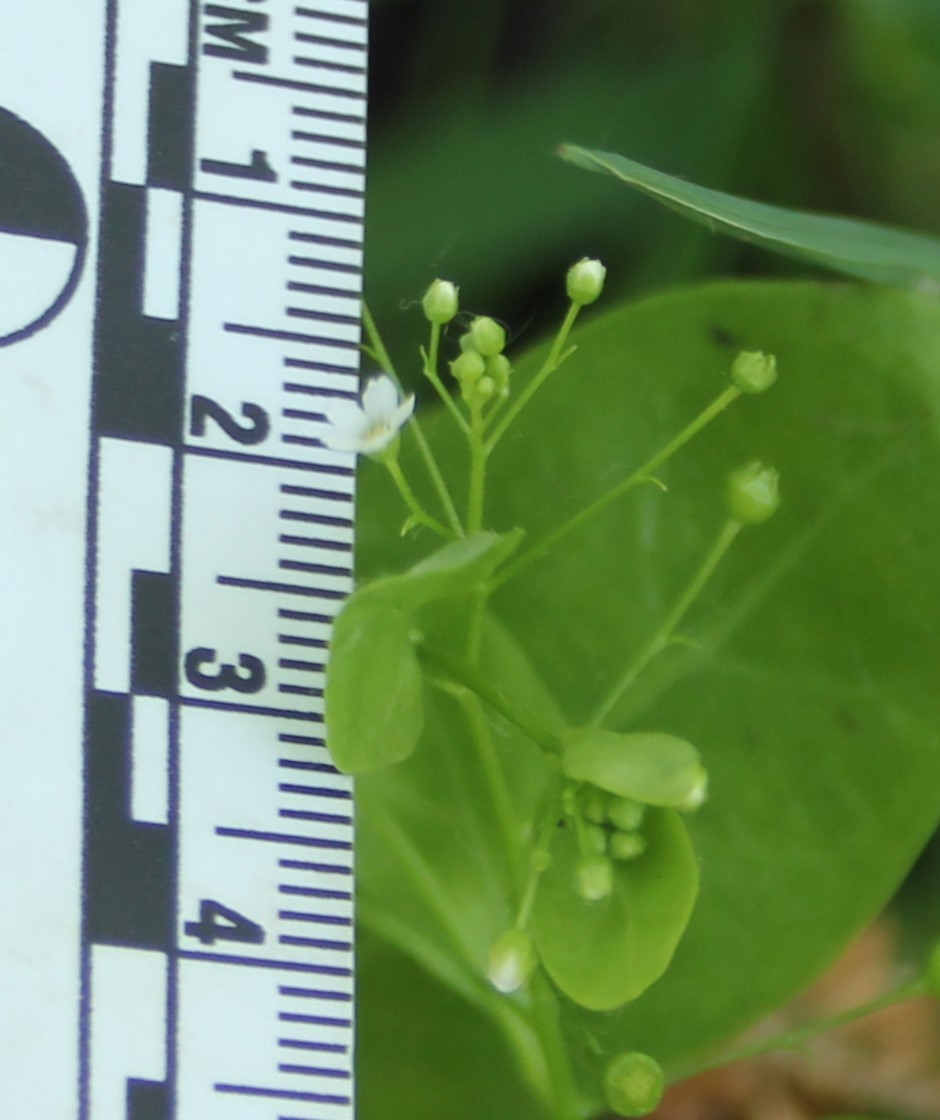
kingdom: Plantae
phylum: Tracheophyta
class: Magnoliopsida
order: Ericales
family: Primulaceae
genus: Samolus
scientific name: Samolus parviflorus
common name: False water pimpernel
